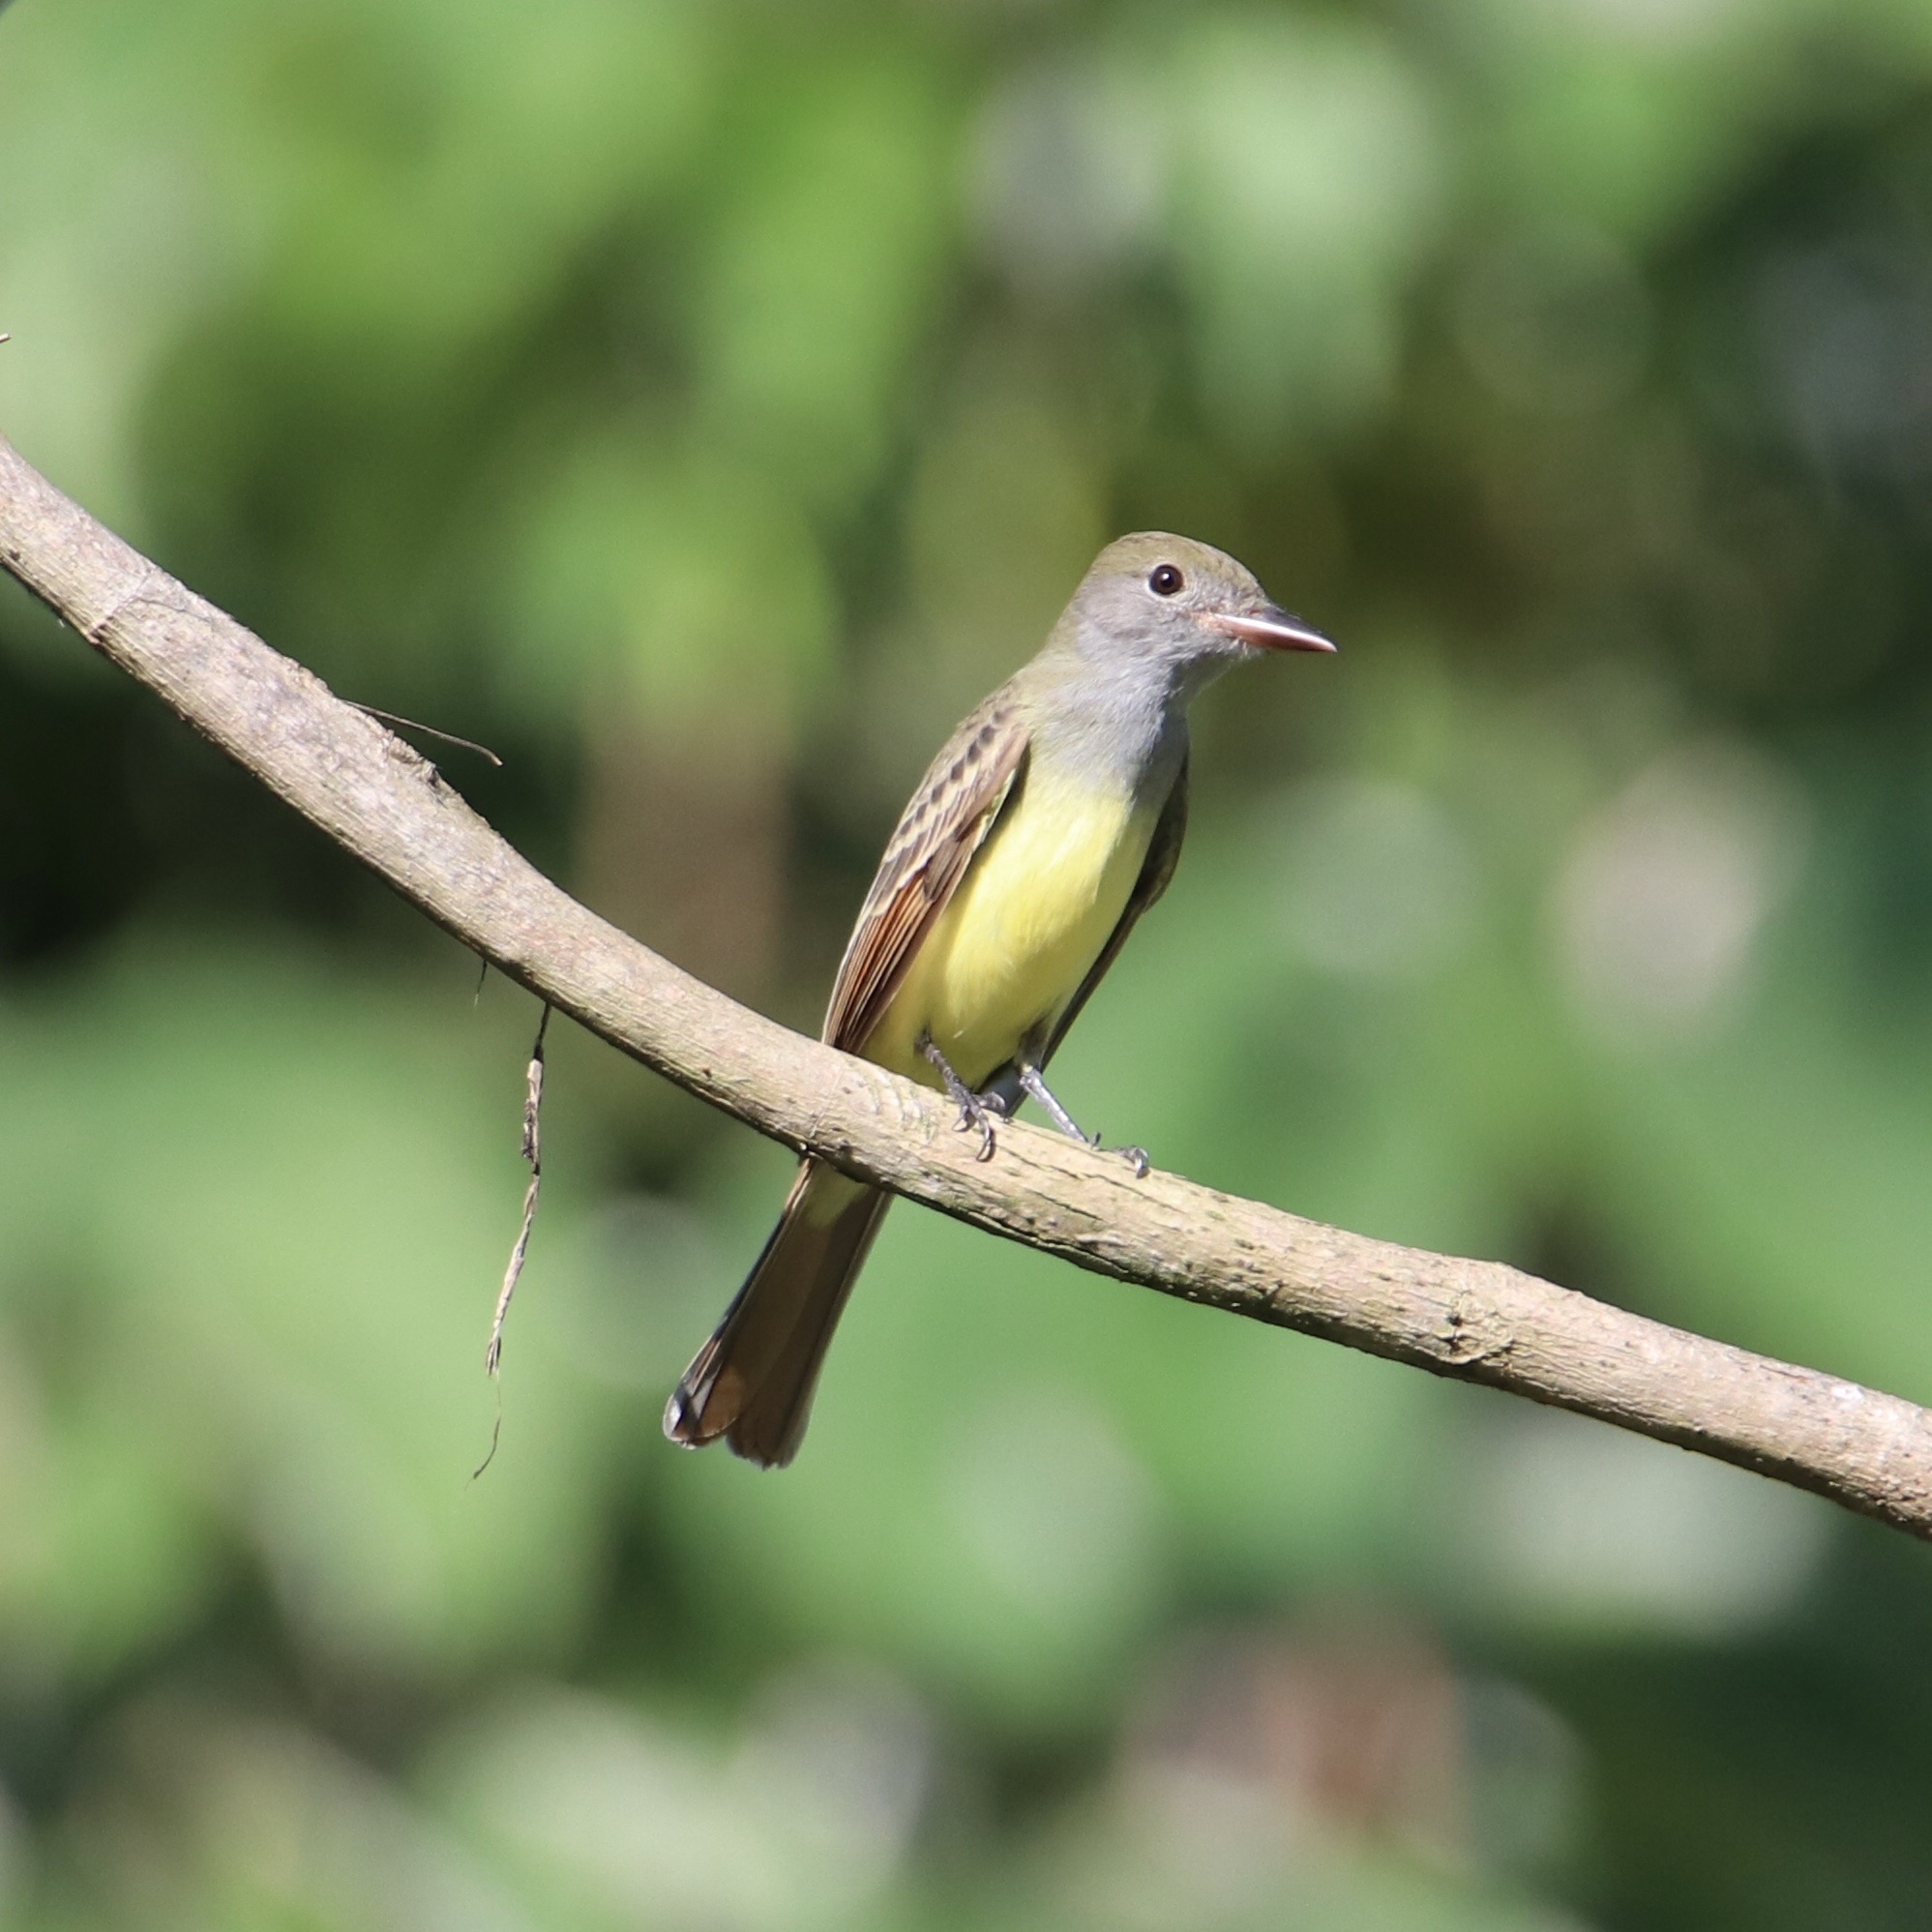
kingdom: Animalia
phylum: Chordata
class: Aves
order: Passeriformes
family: Tyrannidae
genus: Myiarchus
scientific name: Myiarchus crinitus
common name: Great crested flycatcher
